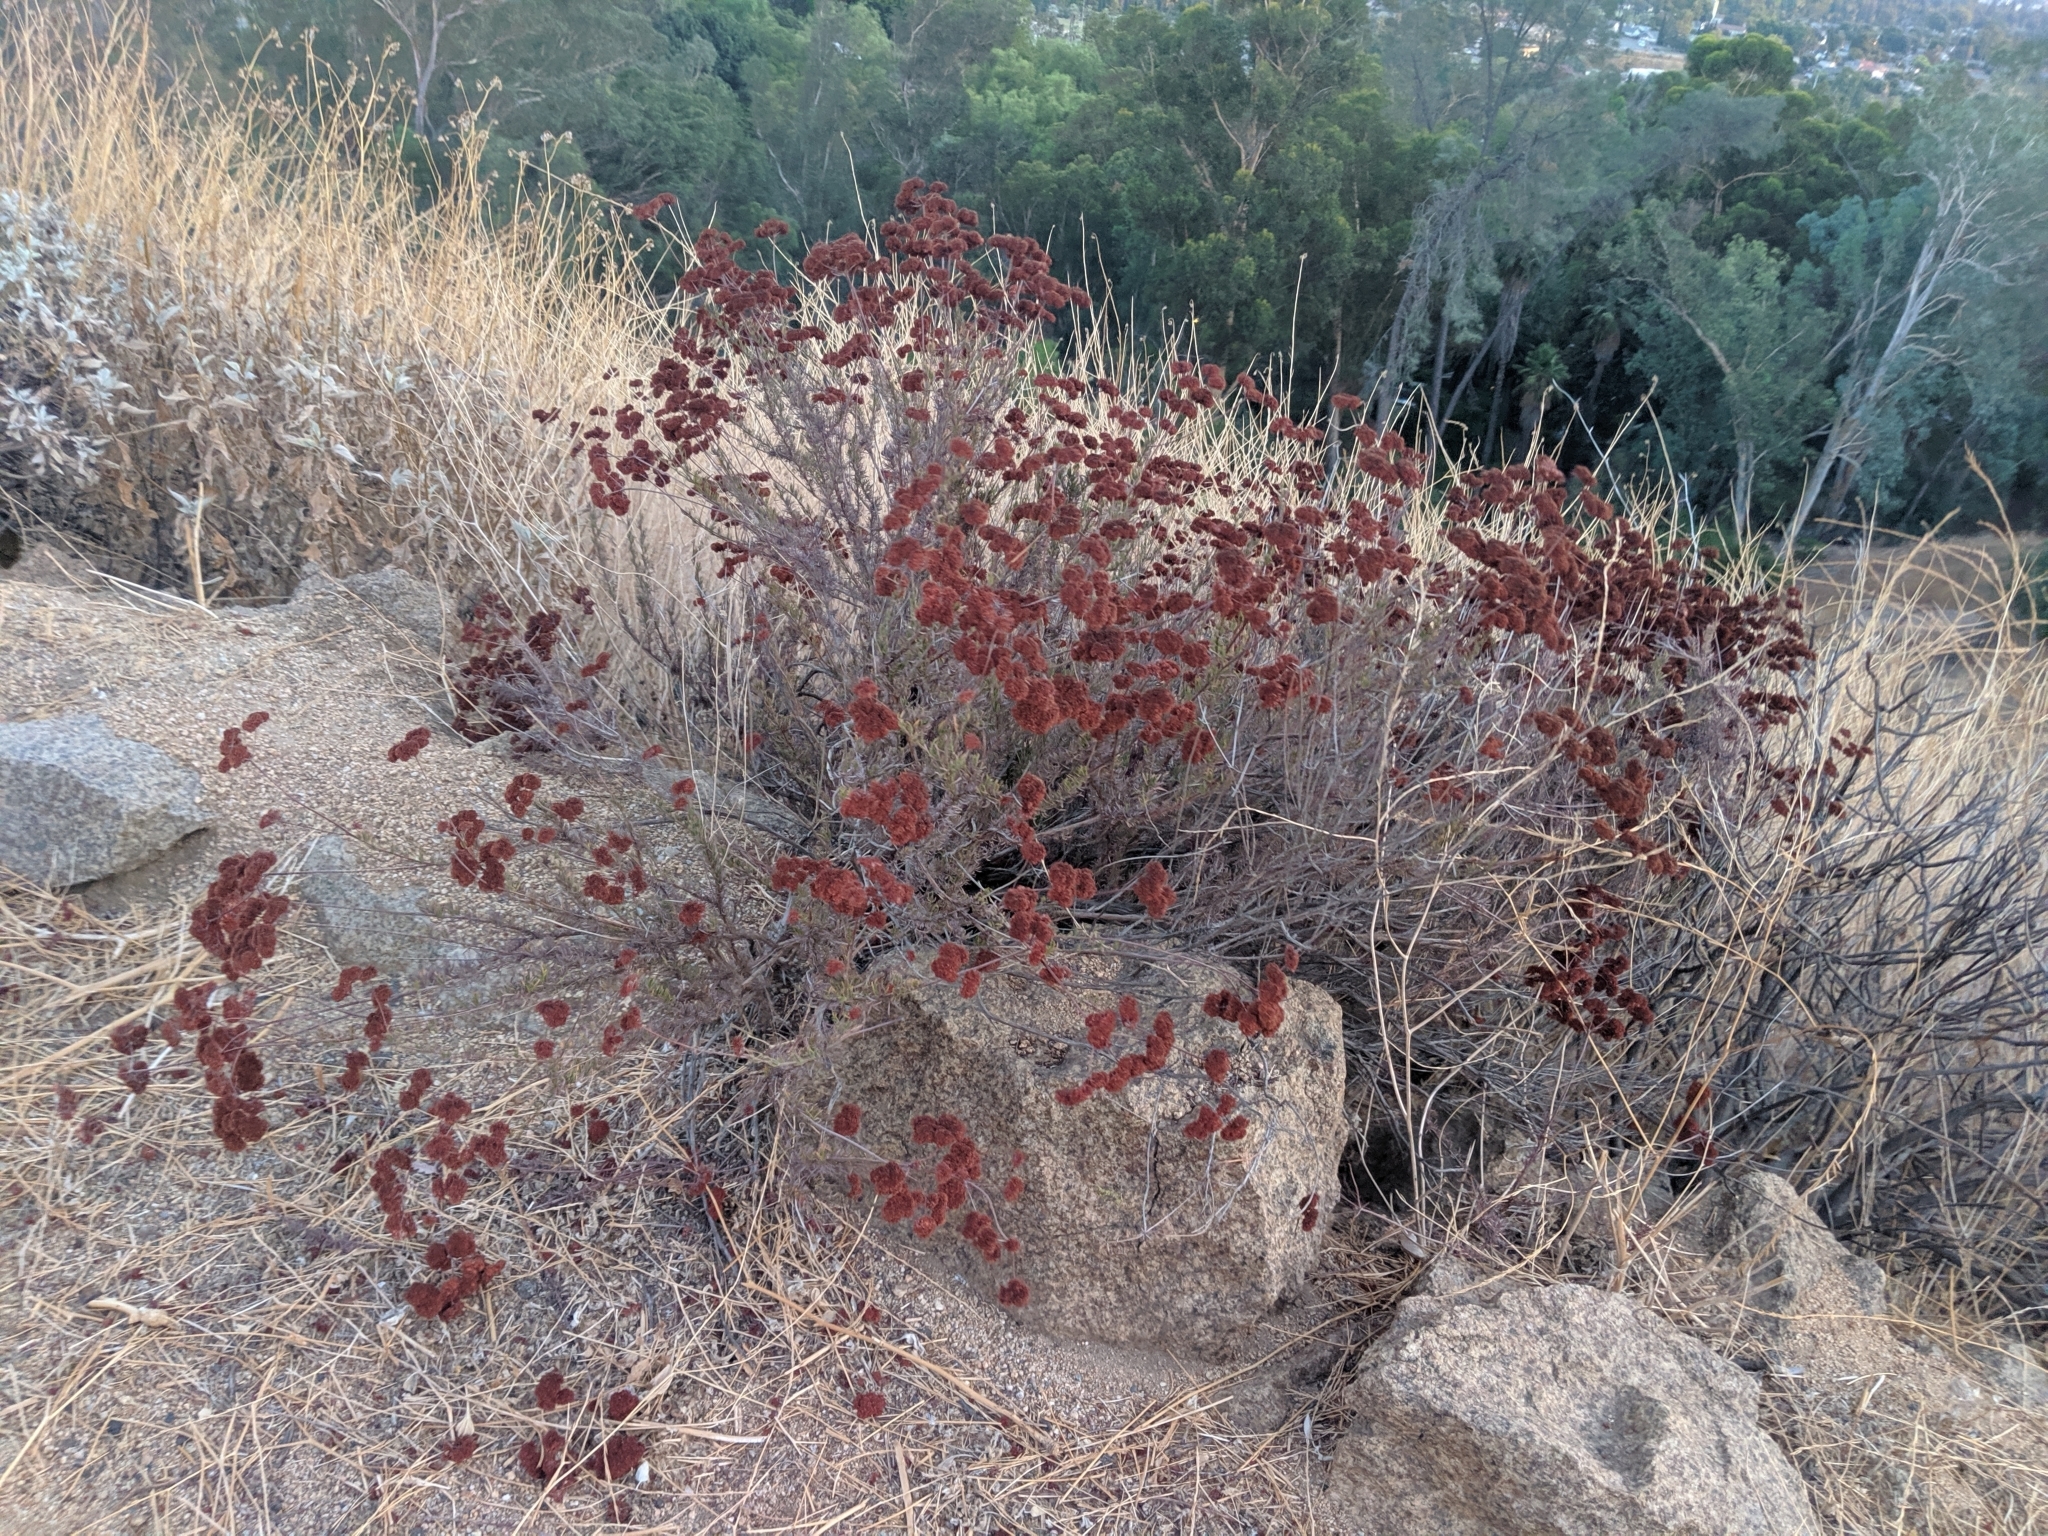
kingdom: Plantae
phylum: Tracheophyta
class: Magnoliopsida
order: Caryophyllales
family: Polygonaceae
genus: Eriogonum
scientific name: Eriogonum fasciculatum
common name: California wild buckwheat
